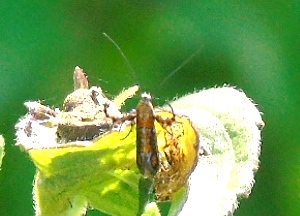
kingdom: Animalia
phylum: Arthropoda
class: Insecta
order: Lepidoptera
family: Heliodinidae
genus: Heliodines
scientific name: Heliodines
